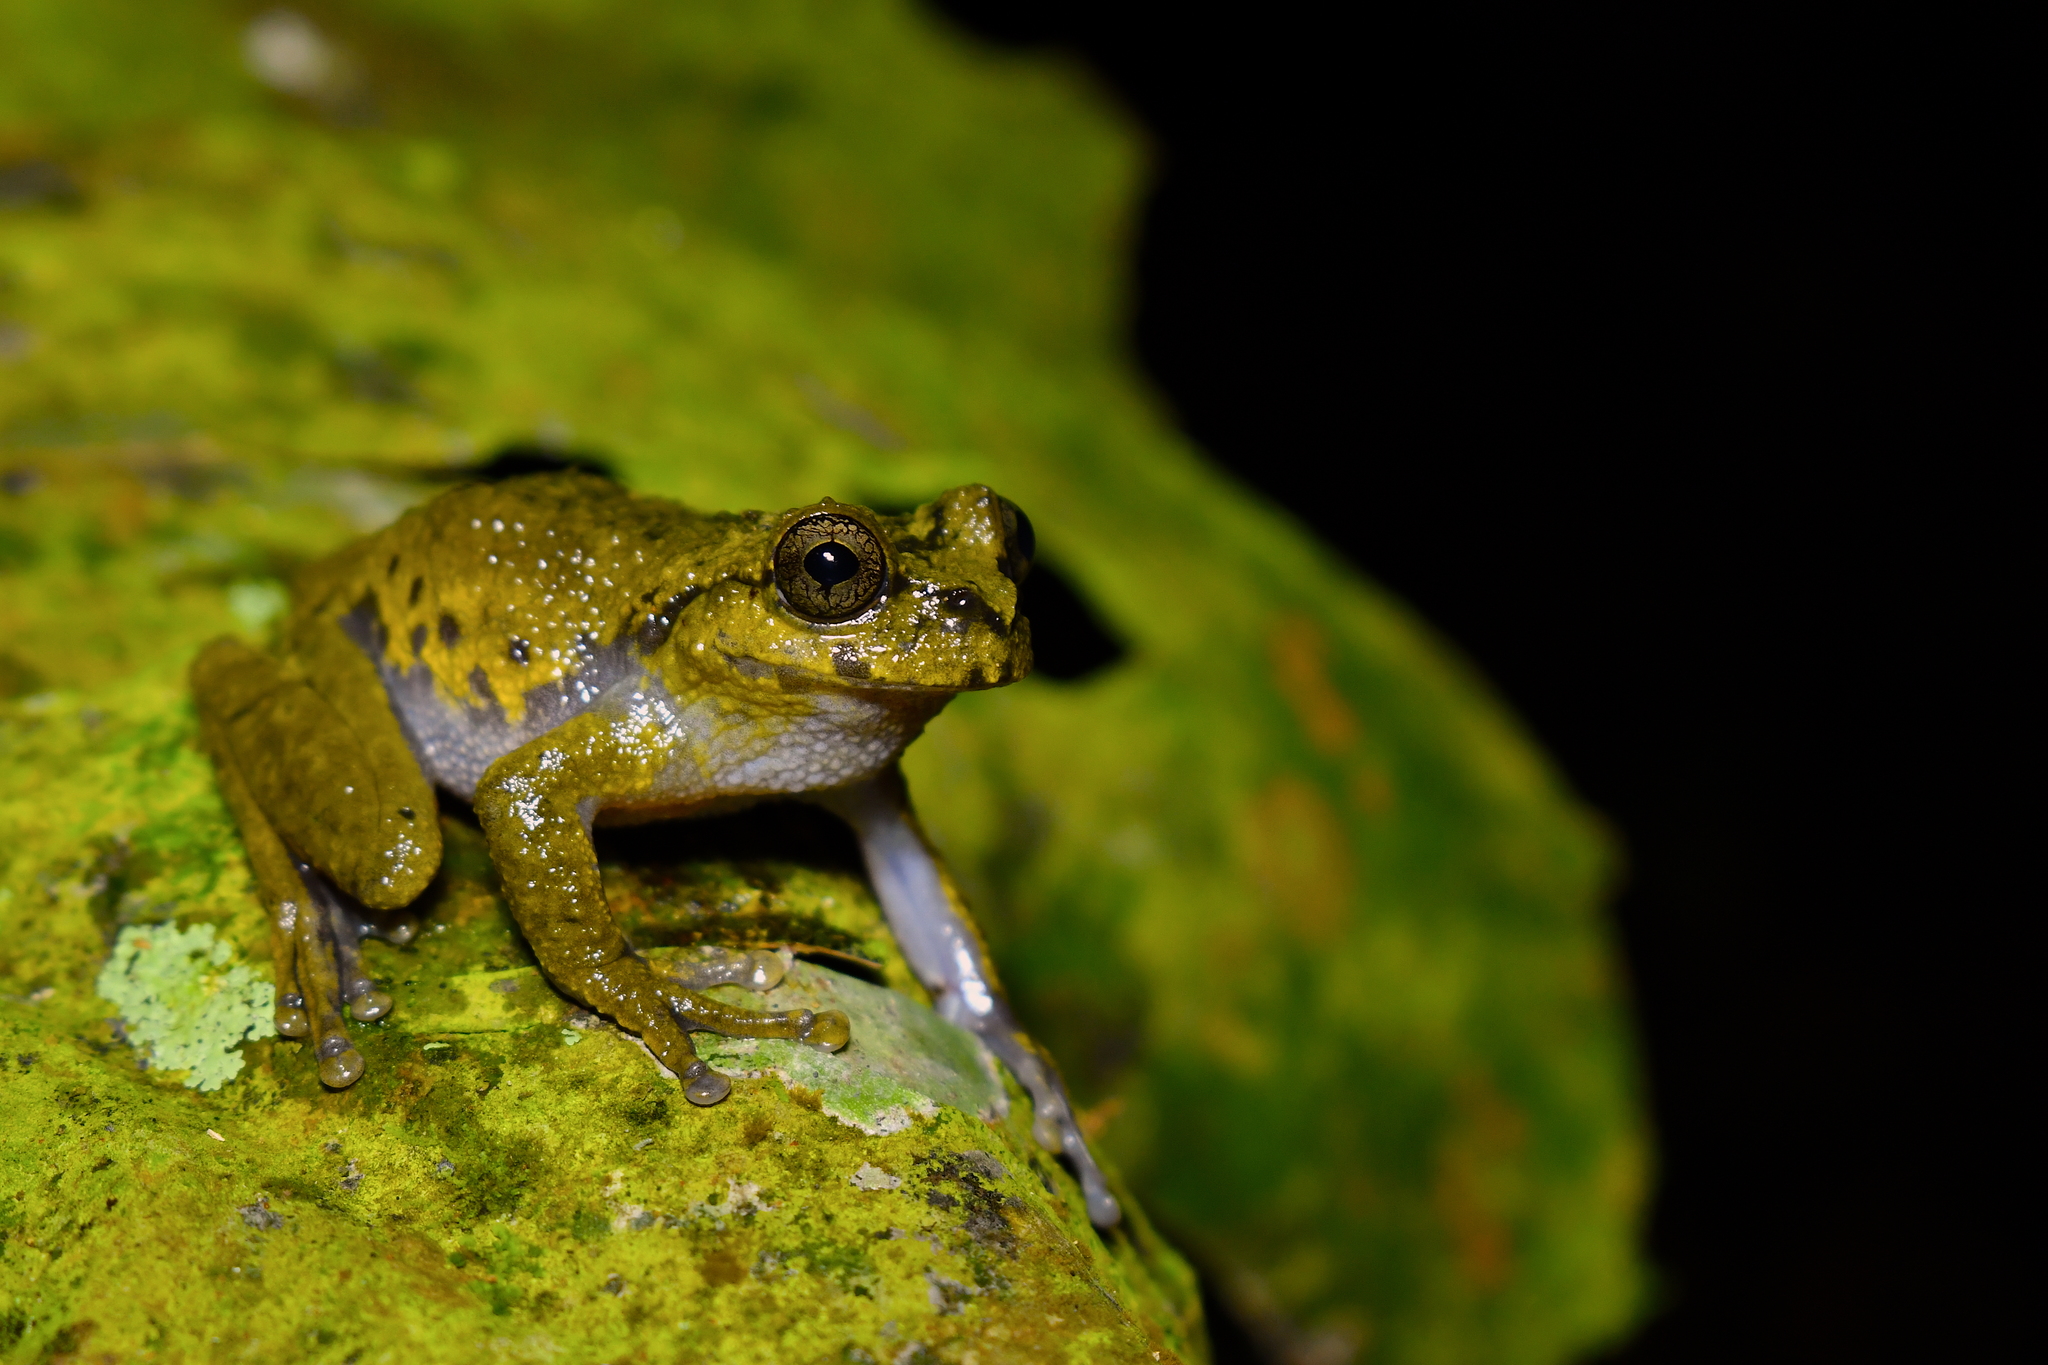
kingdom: Animalia
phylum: Chordata
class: Amphibia
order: Anura
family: Hylidae
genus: Plectrohyla
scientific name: Plectrohyla matudai
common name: Matuda's spikethumb frog
